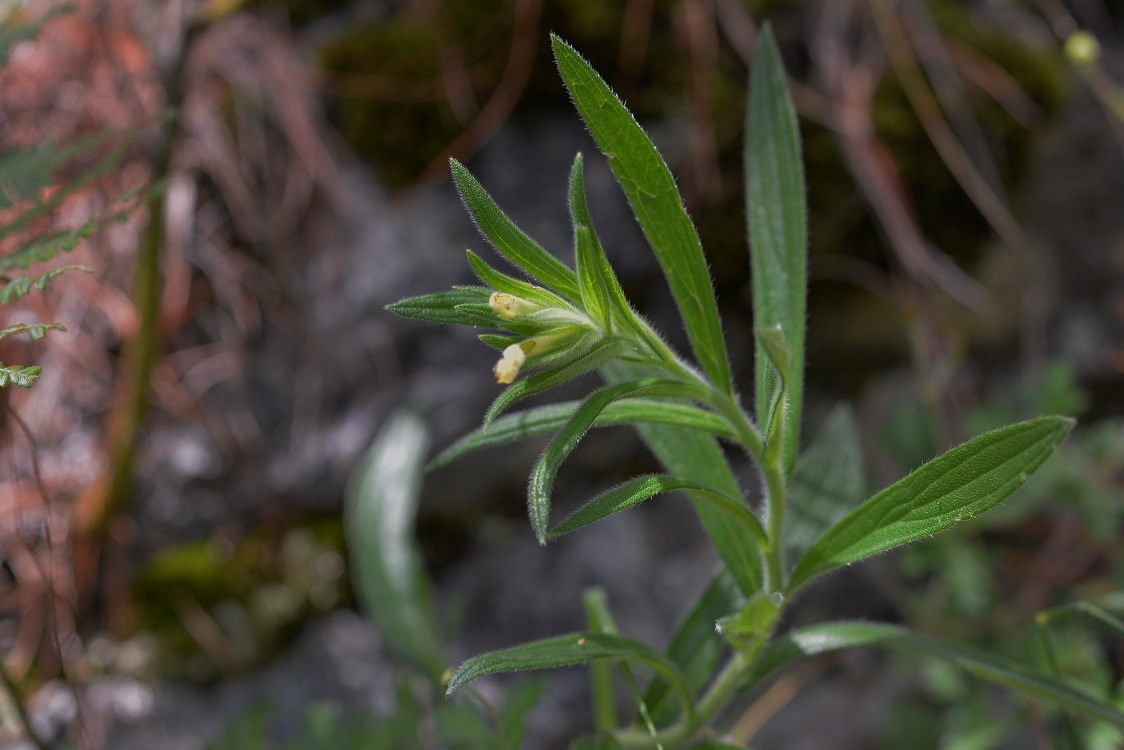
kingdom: Plantae
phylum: Tracheophyta
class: Magnoliopsida
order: Boraginales
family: Boraginaceae
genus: Lithospermum
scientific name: Lithospermum guatemalense
